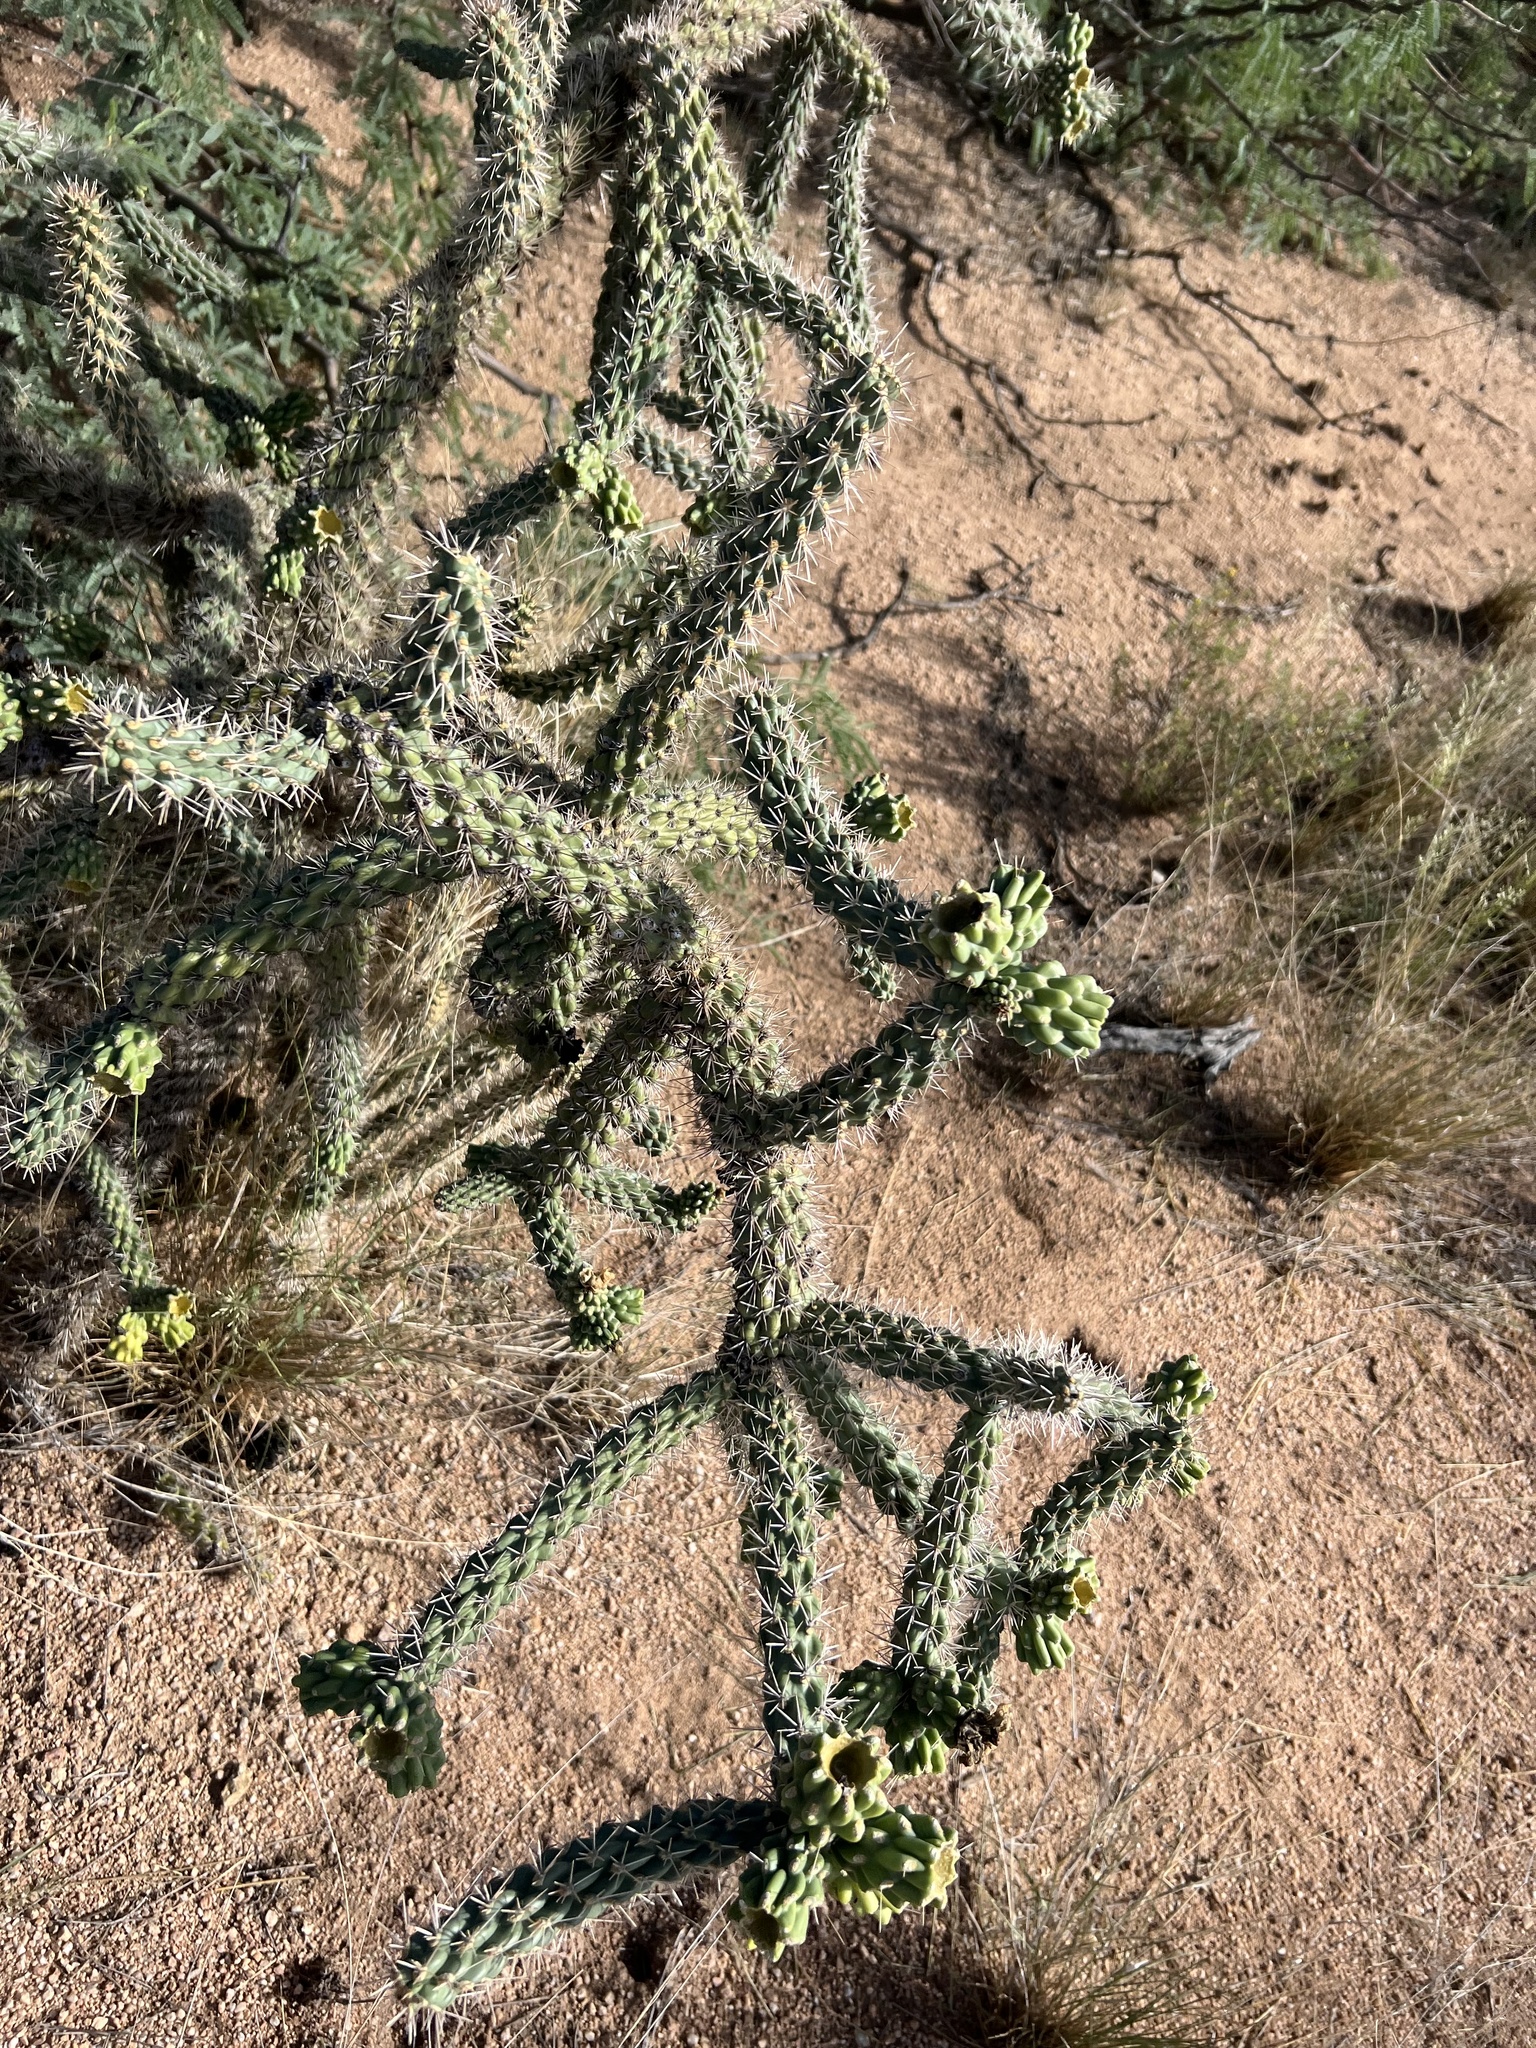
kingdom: Plantae
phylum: Tracheophyta
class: Magnoliopsida
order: Caryophyllales
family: Cactaceae
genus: Cylindropuntia
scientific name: Cylindropuntia imbricata
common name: Candelabrum cactus
